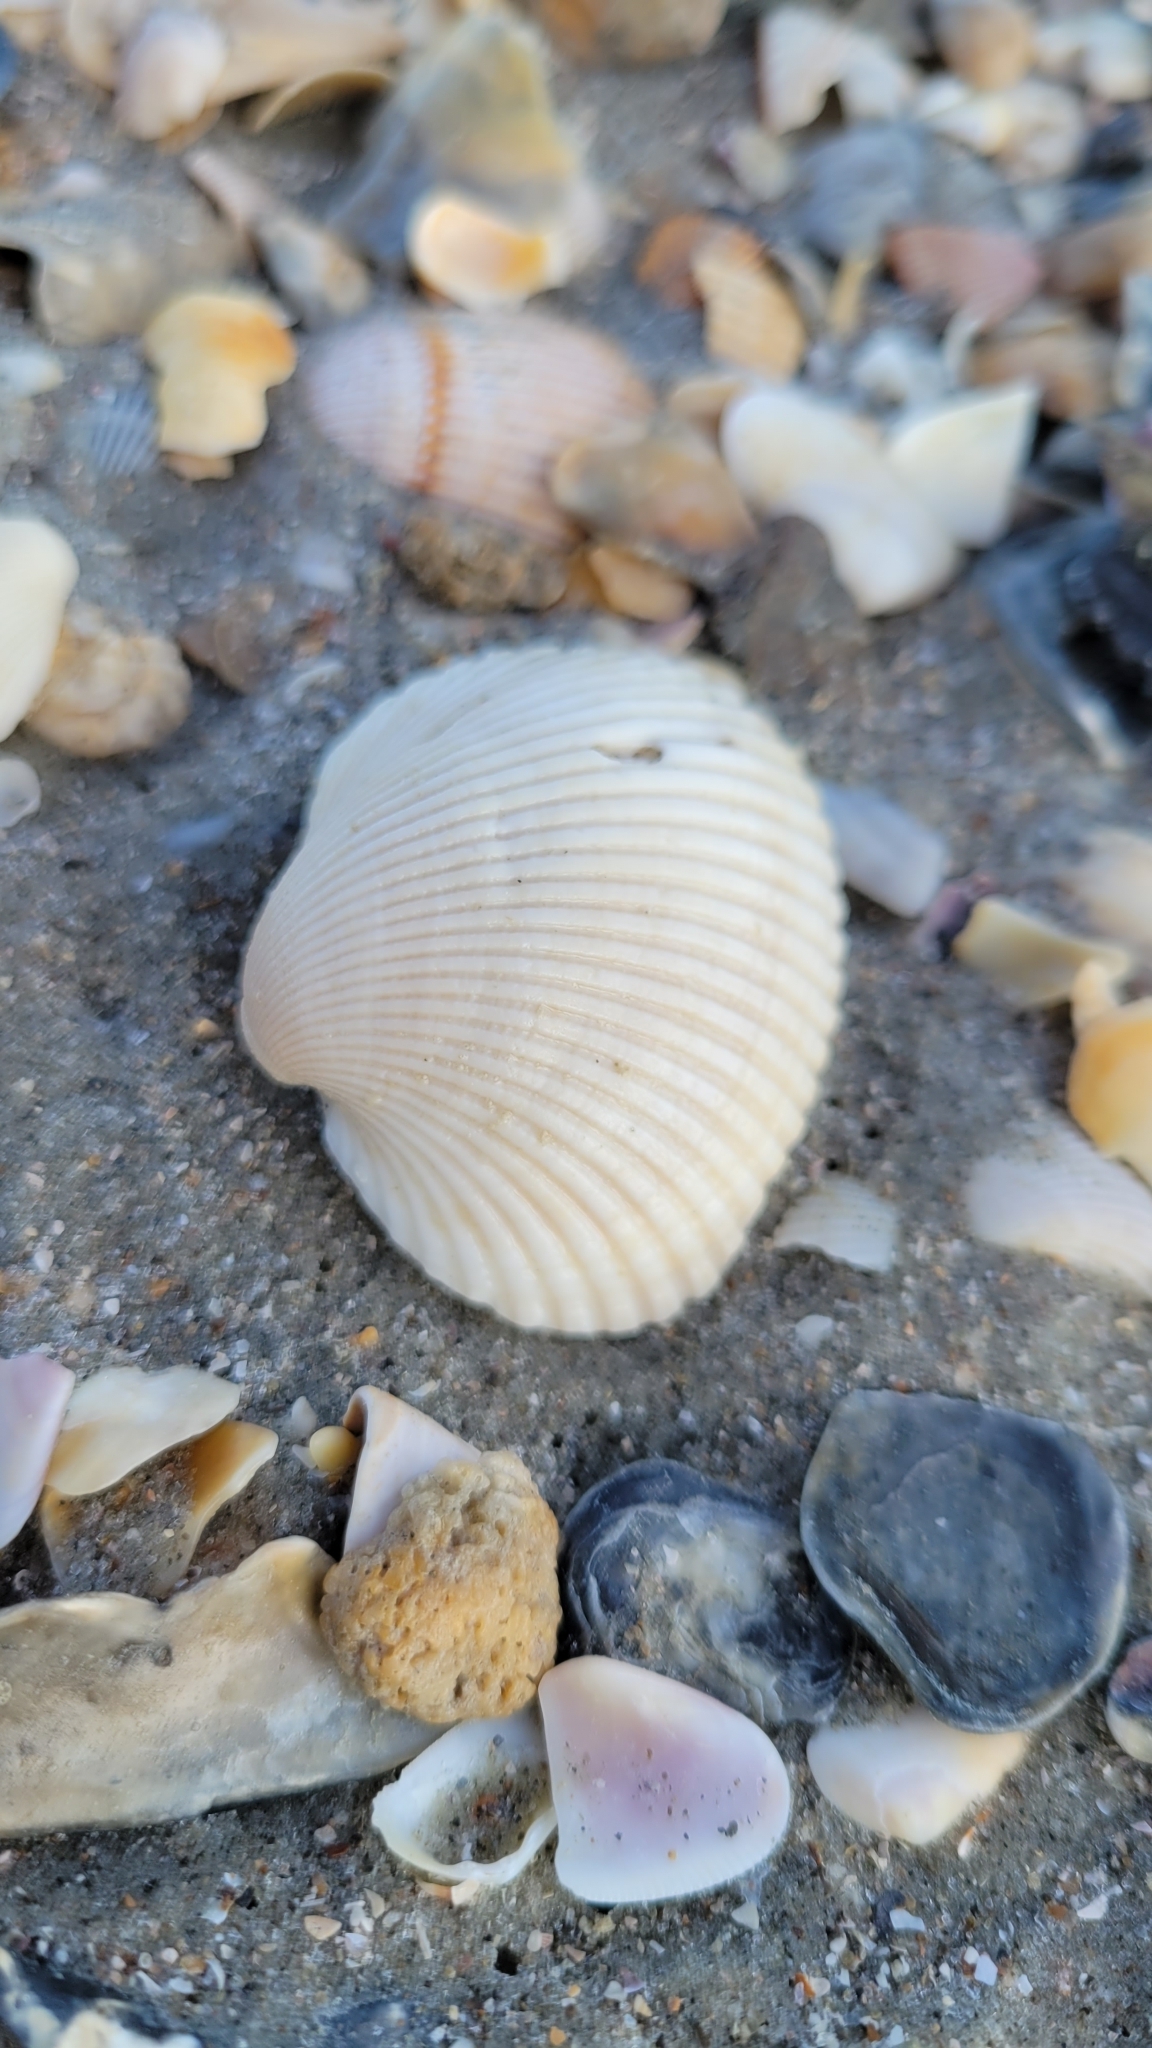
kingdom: Animalia
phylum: Mollusca
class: Bivalvia
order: Arcida
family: Arcidae
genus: Lunarca
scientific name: Lunarca ovalis
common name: Blood ark
